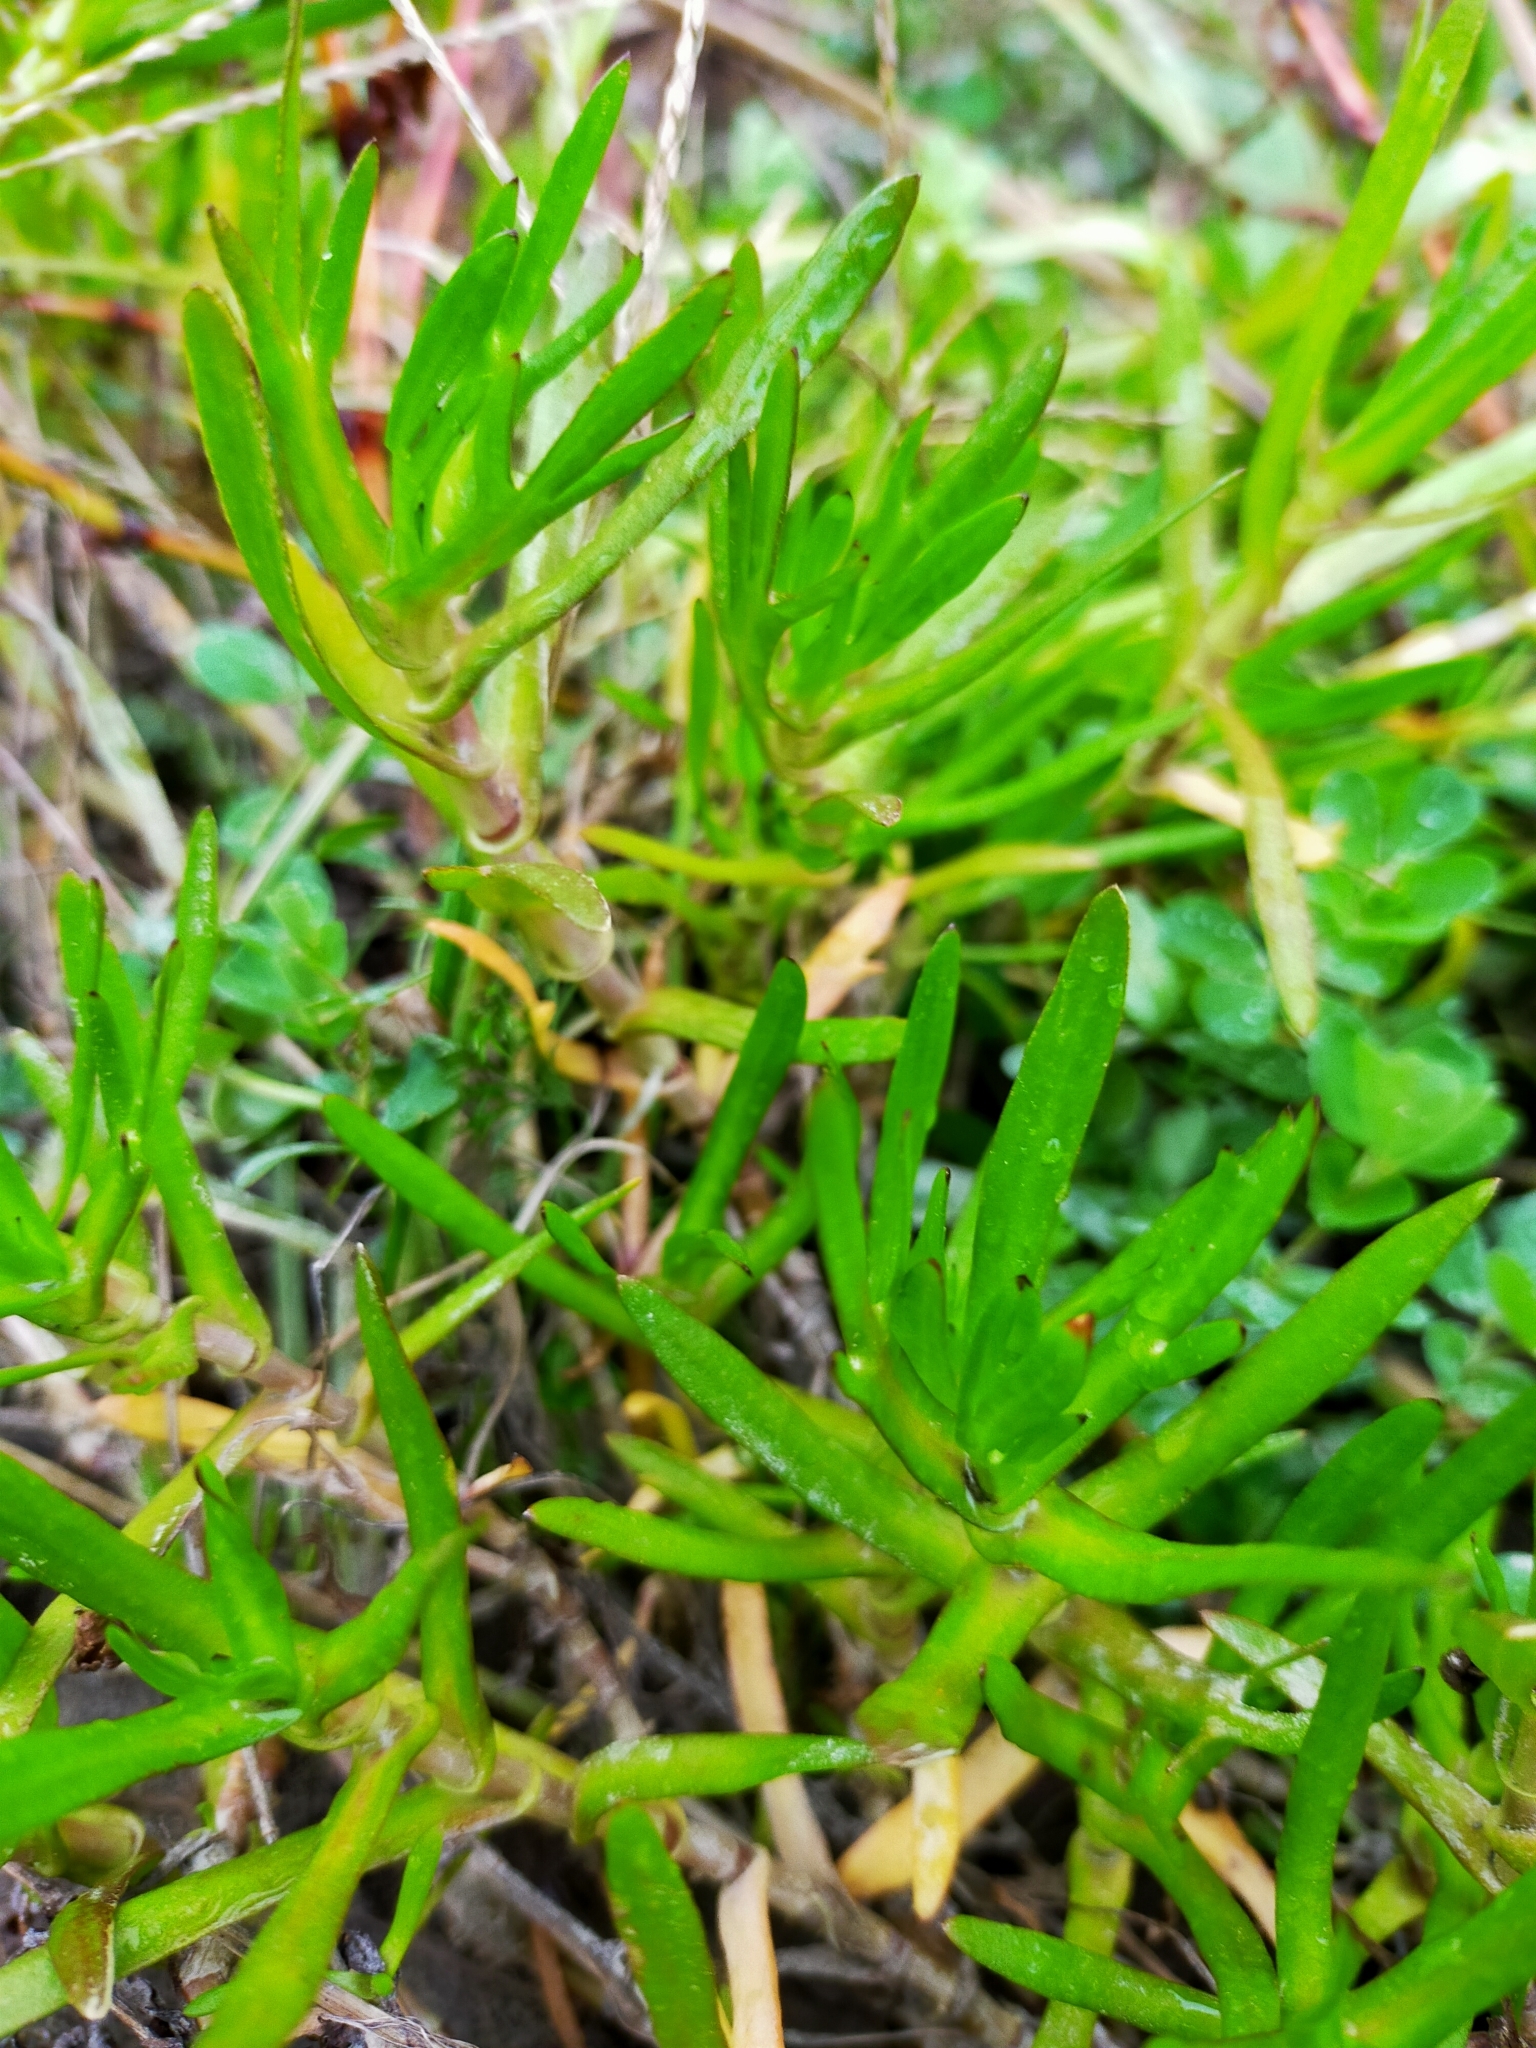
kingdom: Plantae
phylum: Tracheophyta
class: Magnoliopsida
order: Asterales
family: Asteraceae
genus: Cotula
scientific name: Cotula coronopifolia
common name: Buttonweed
